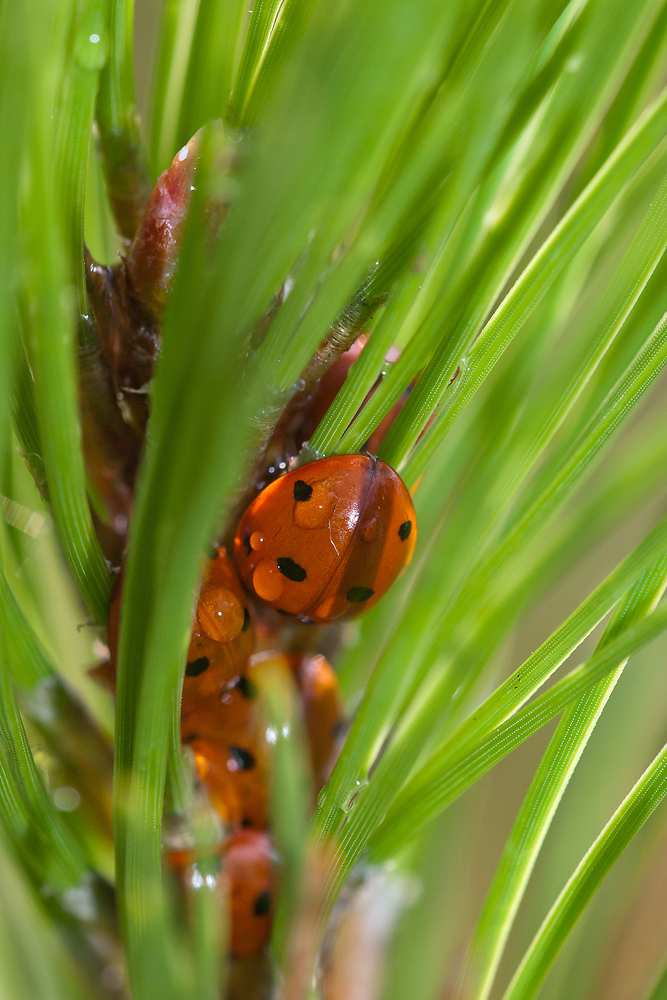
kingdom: Animalia
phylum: Arthropoda
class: Insecta
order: Coleoptera
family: Coccinellidae
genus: Coccinella
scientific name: Coccinella septempunctata
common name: Sevenspotted lady beetle
